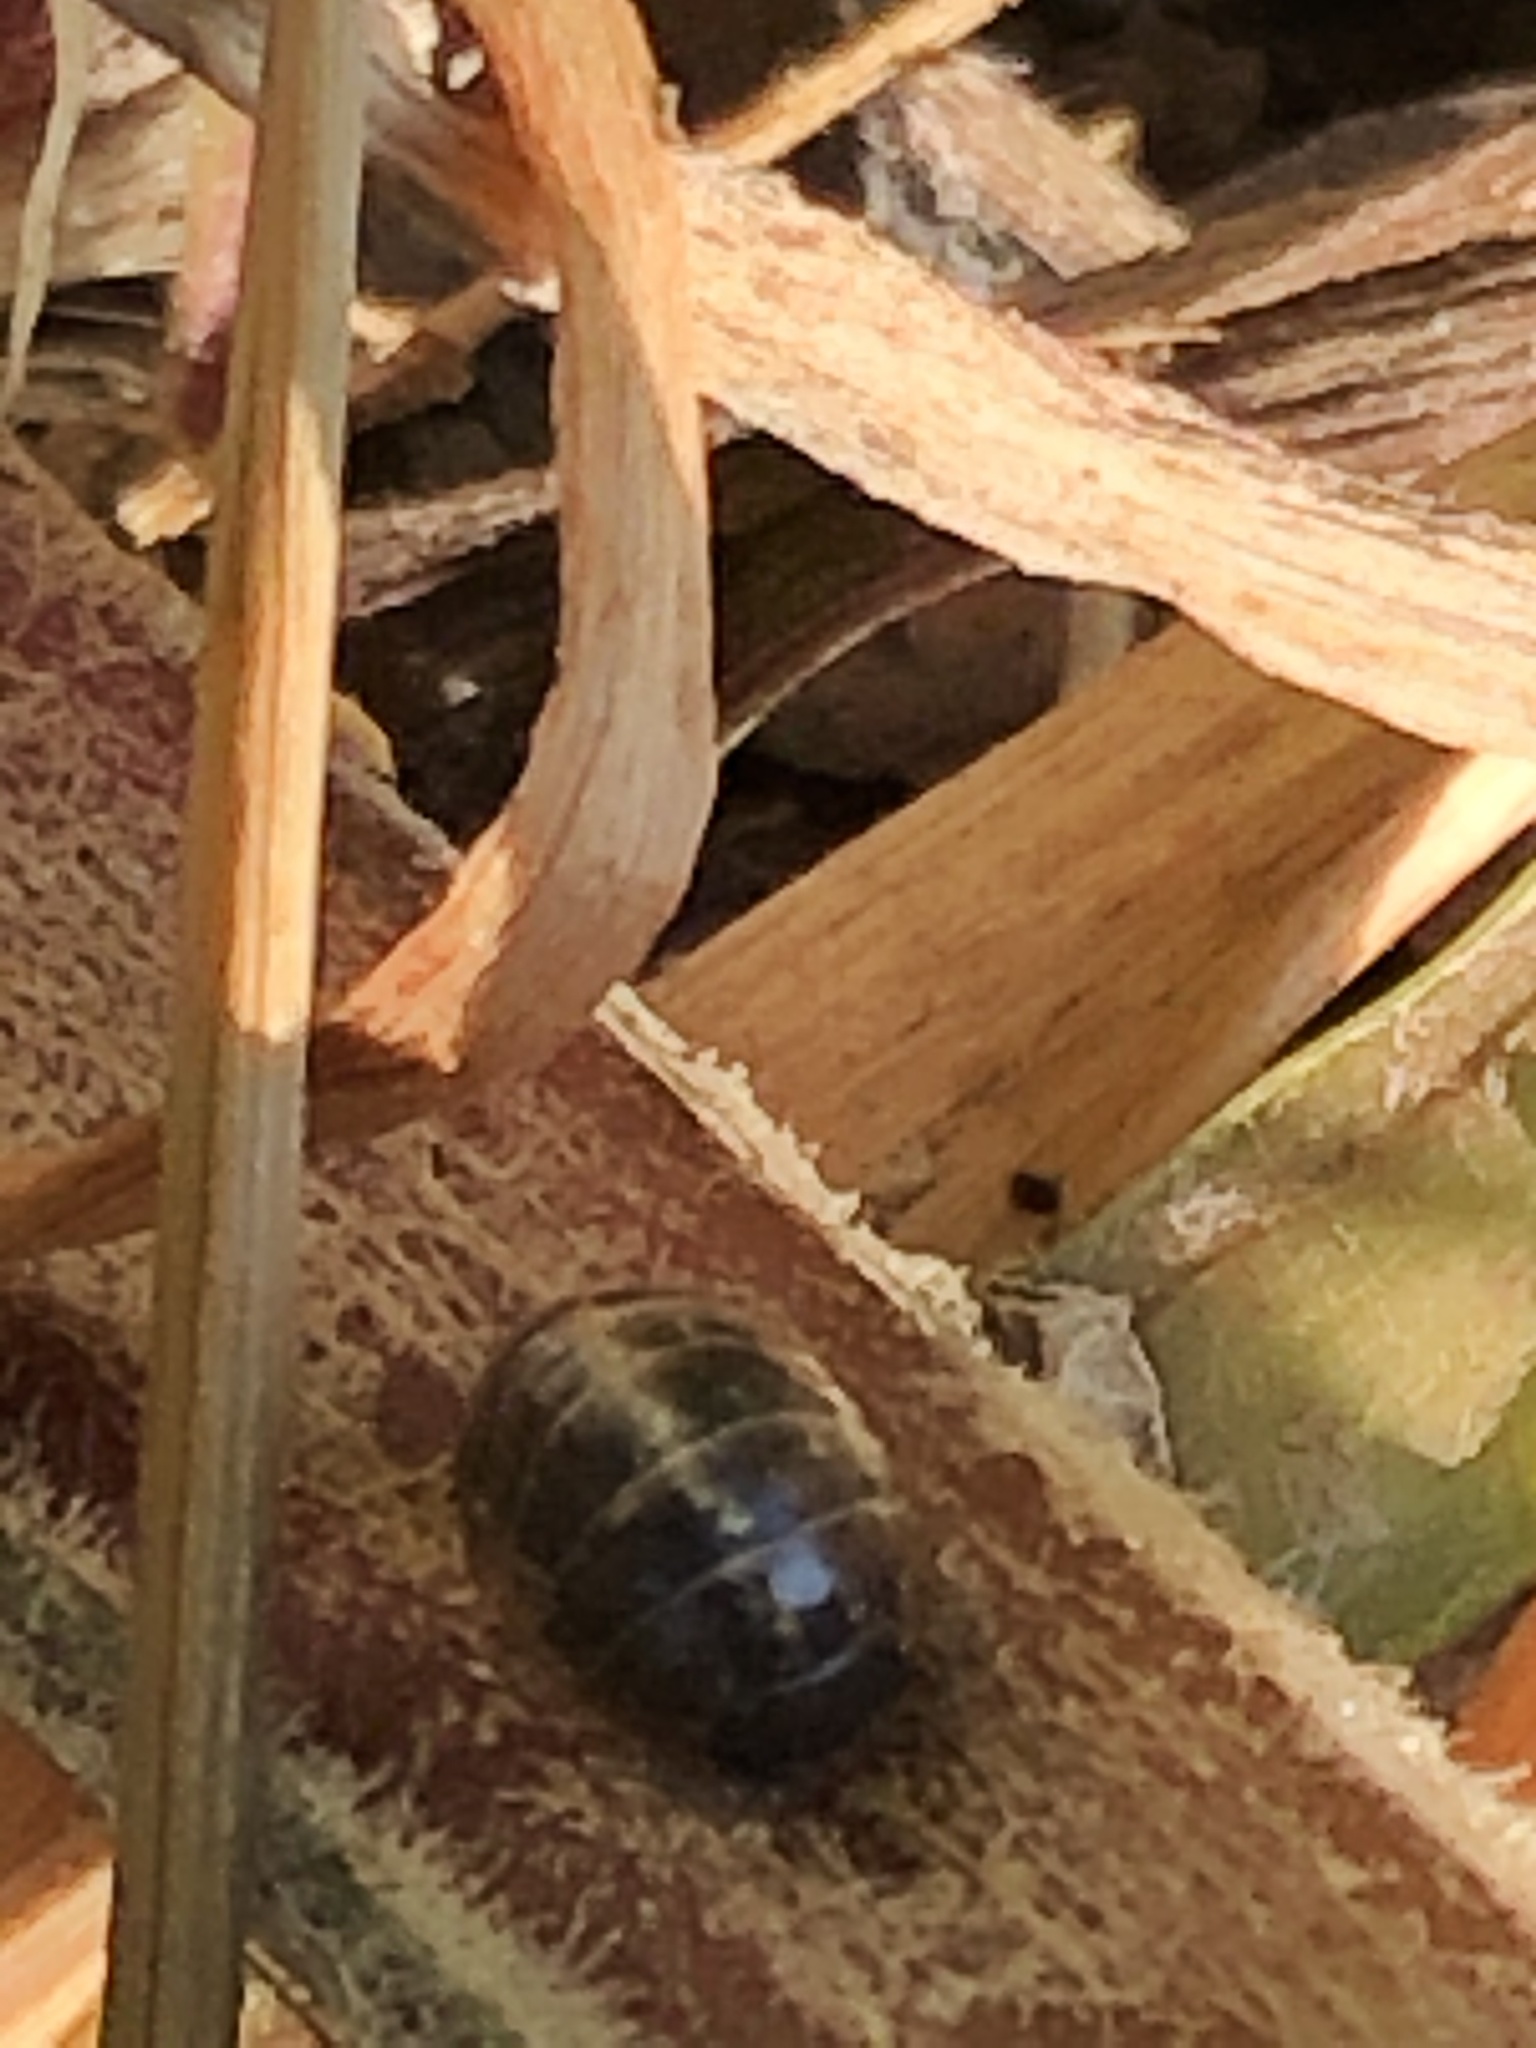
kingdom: Animalia
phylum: Arthropoda
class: Malacostraca
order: Isopoda
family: Armadillidiidae
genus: Armadillidium
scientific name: Armadillidium vulgare
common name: Common pill woodlouse
